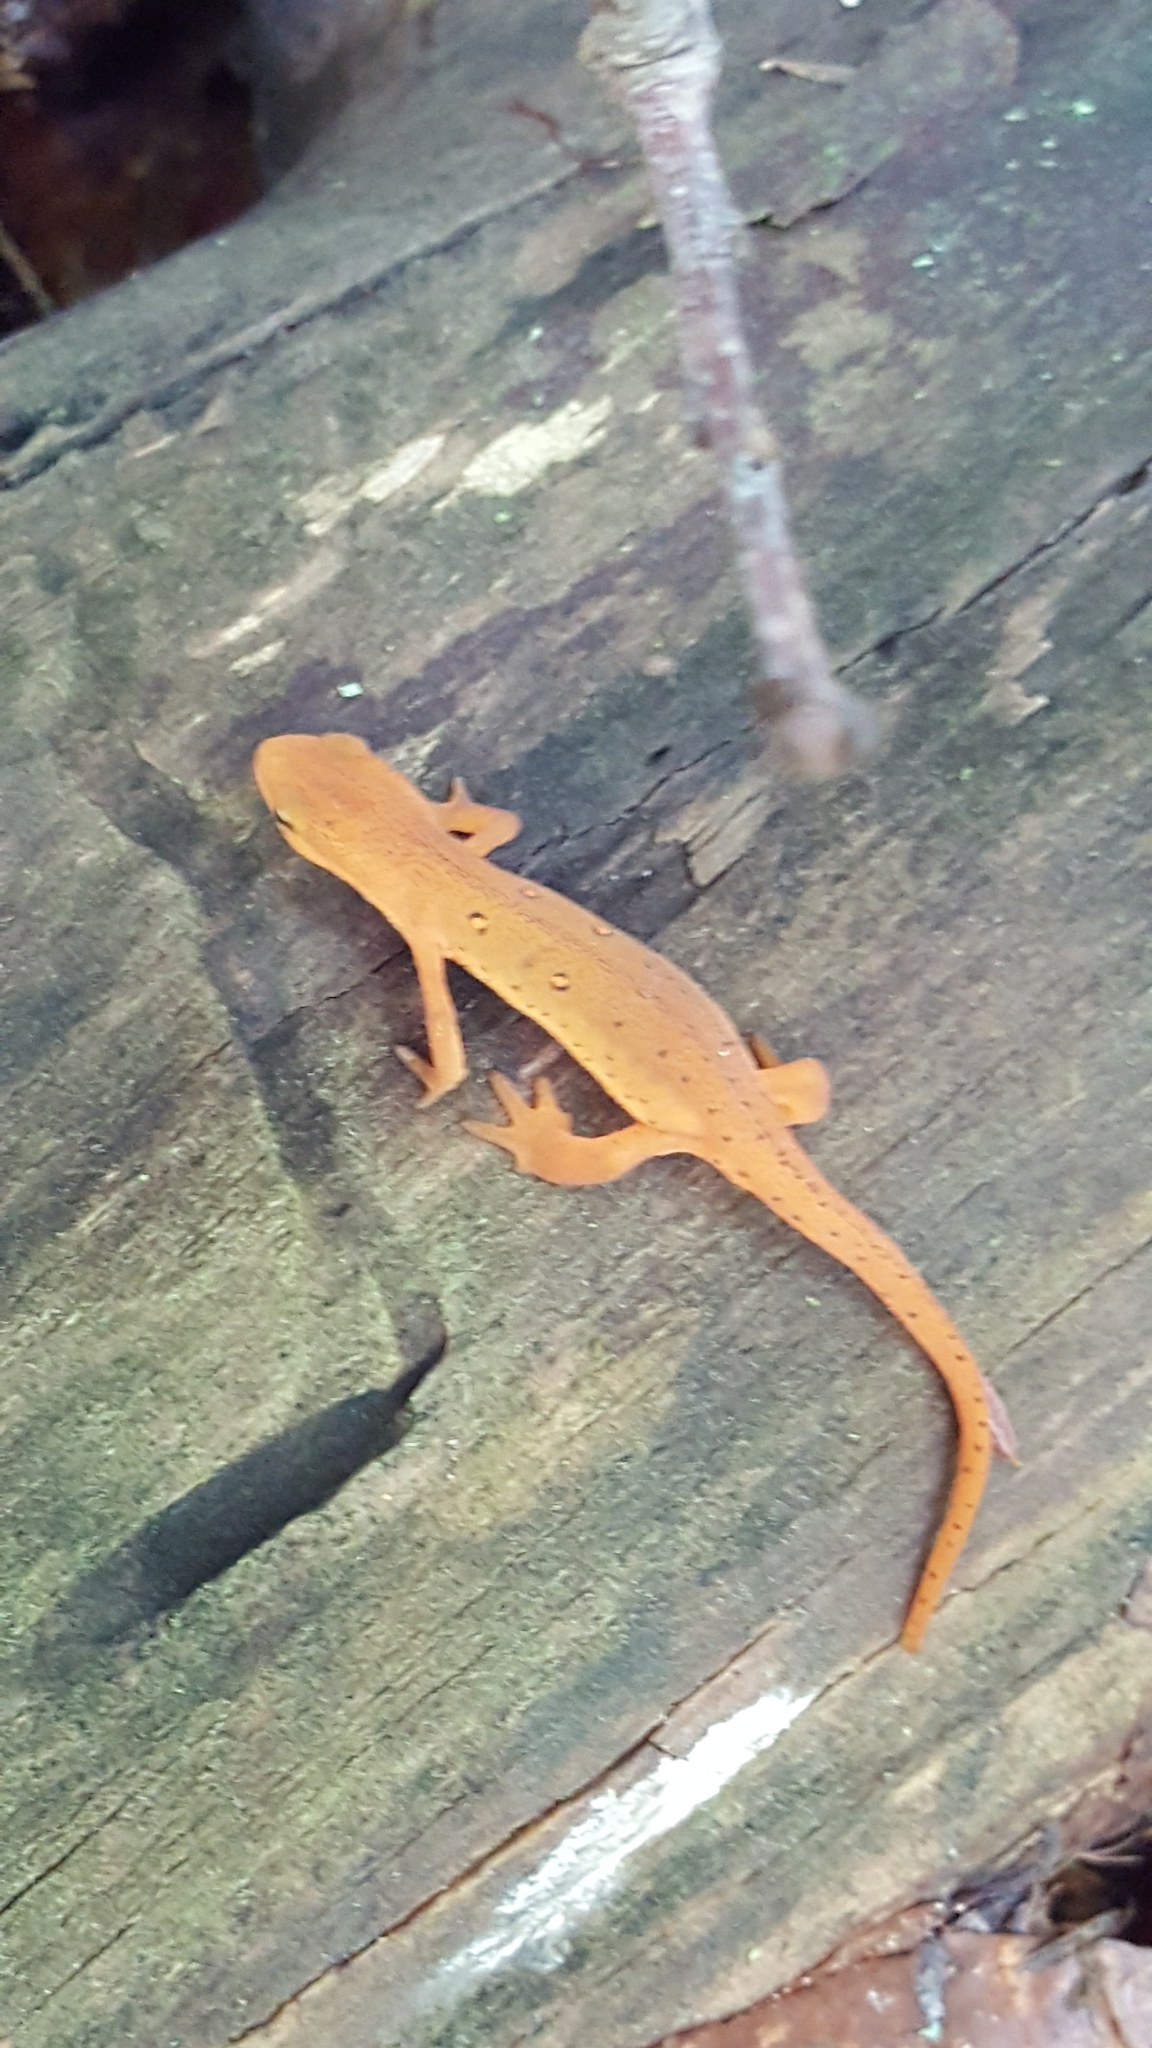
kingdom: Animalia
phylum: Chordata
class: Amphibia
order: Caudata
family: Salamandridae
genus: Notophthalmus
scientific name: Notophthalmus viridescens
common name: Eastern newt
